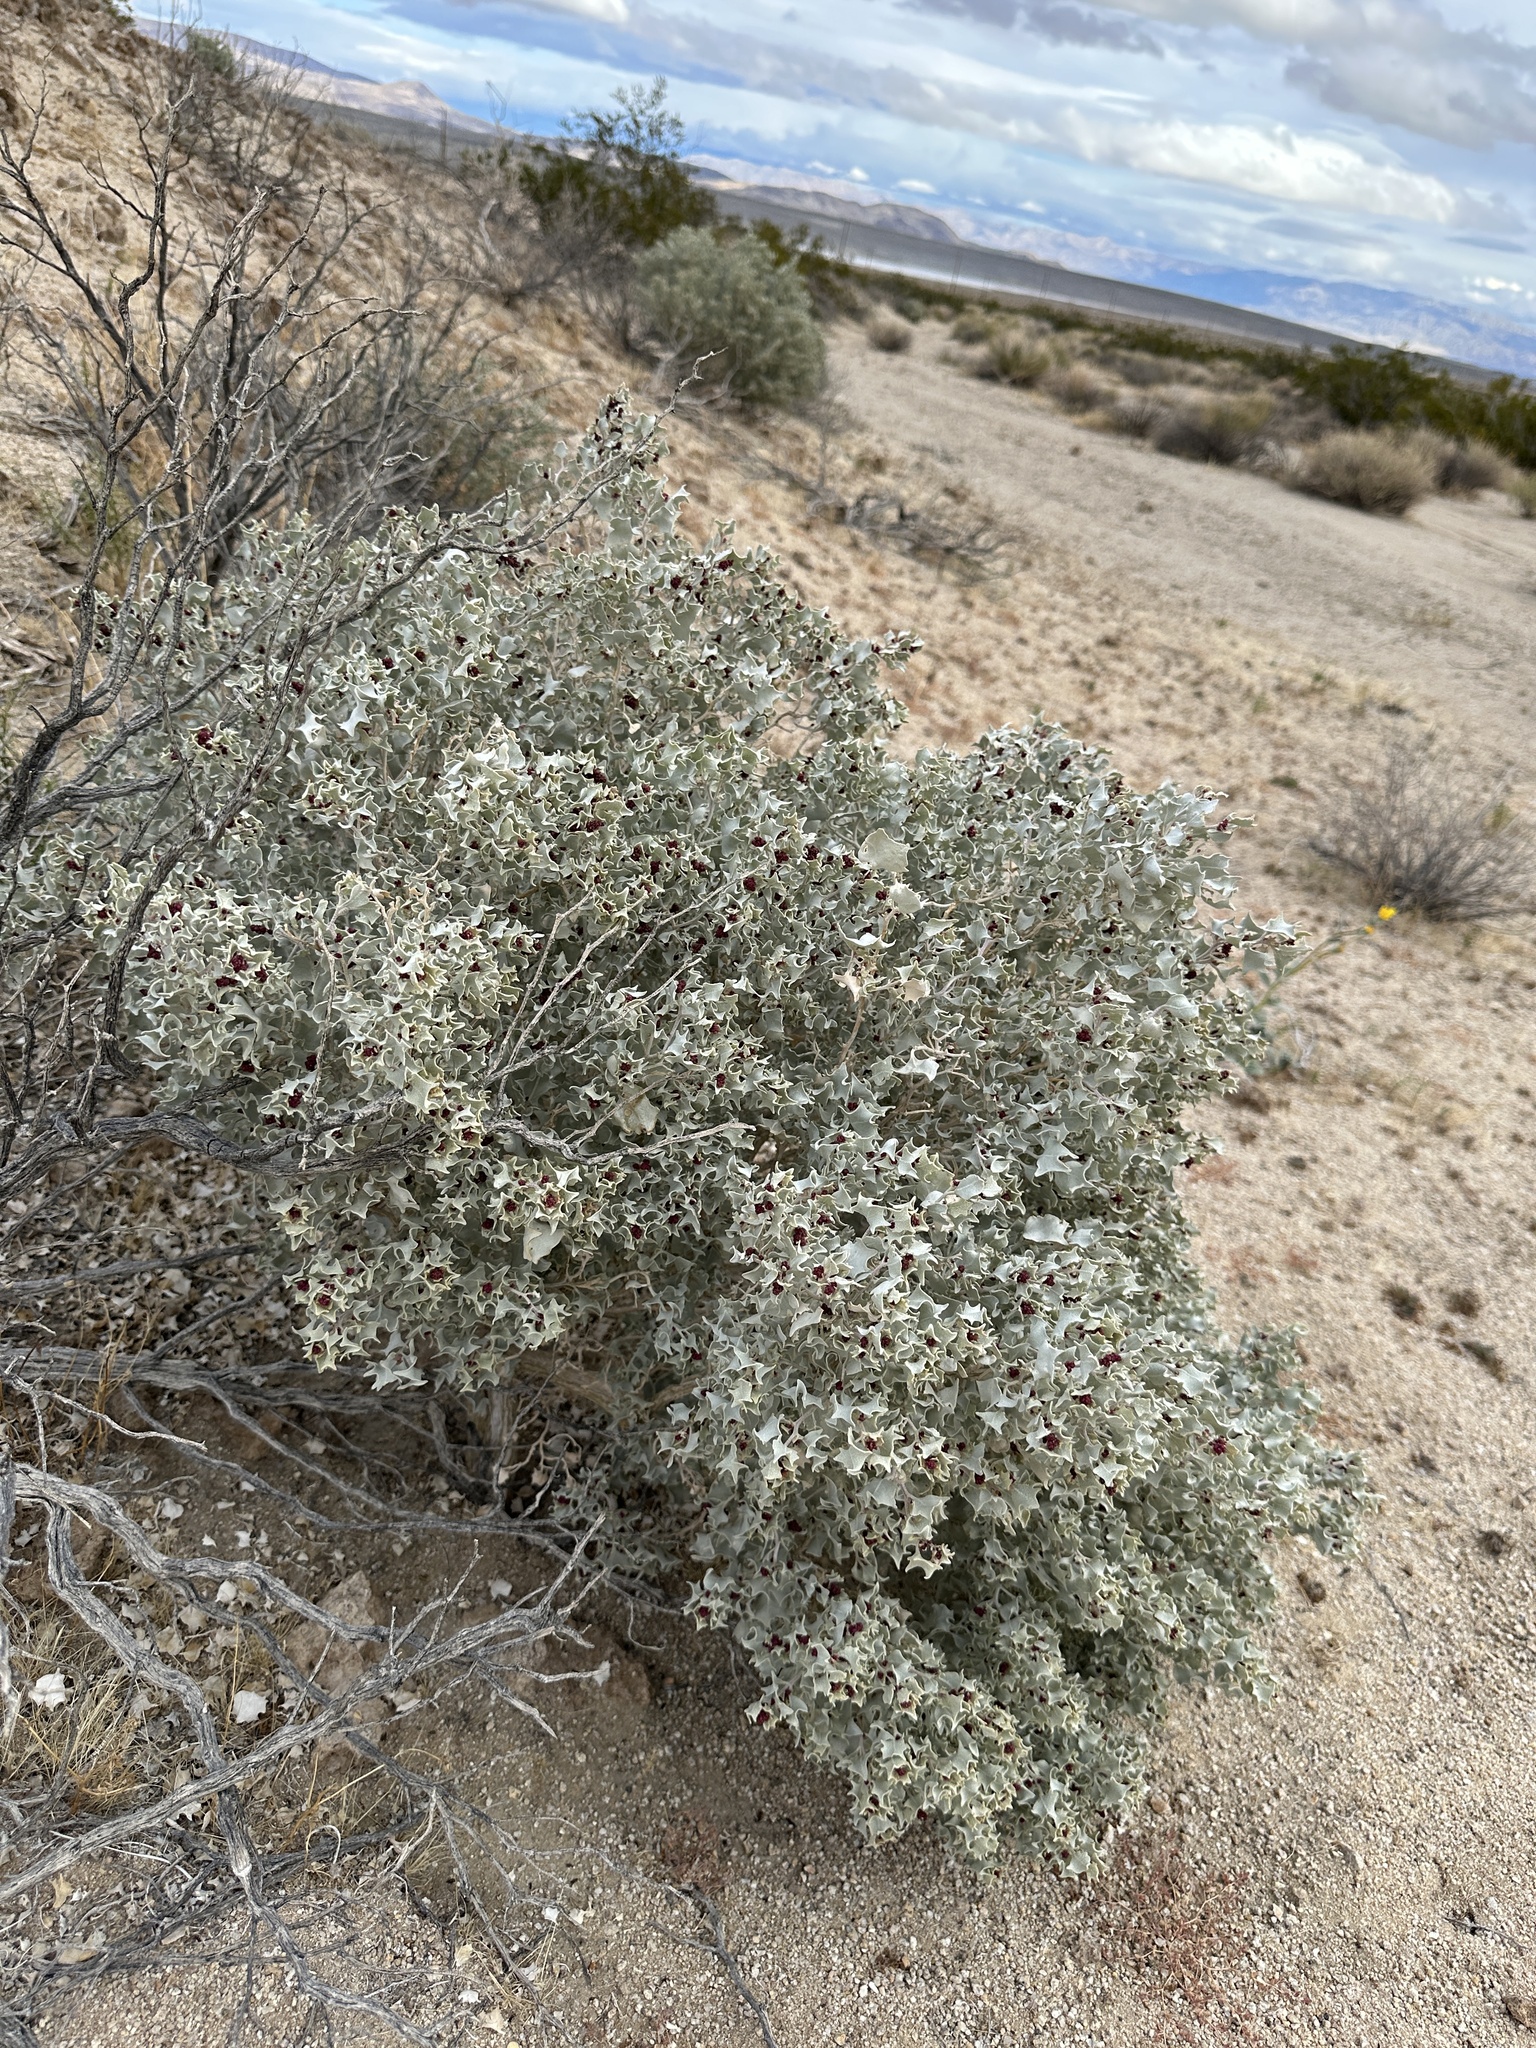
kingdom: Plantae
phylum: Tracheophyta
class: Magnoliopsida
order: Caryophyllales
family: Amaranthaceae
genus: Atriplex
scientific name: Atriplex hymenelytra
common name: Desert-holly
